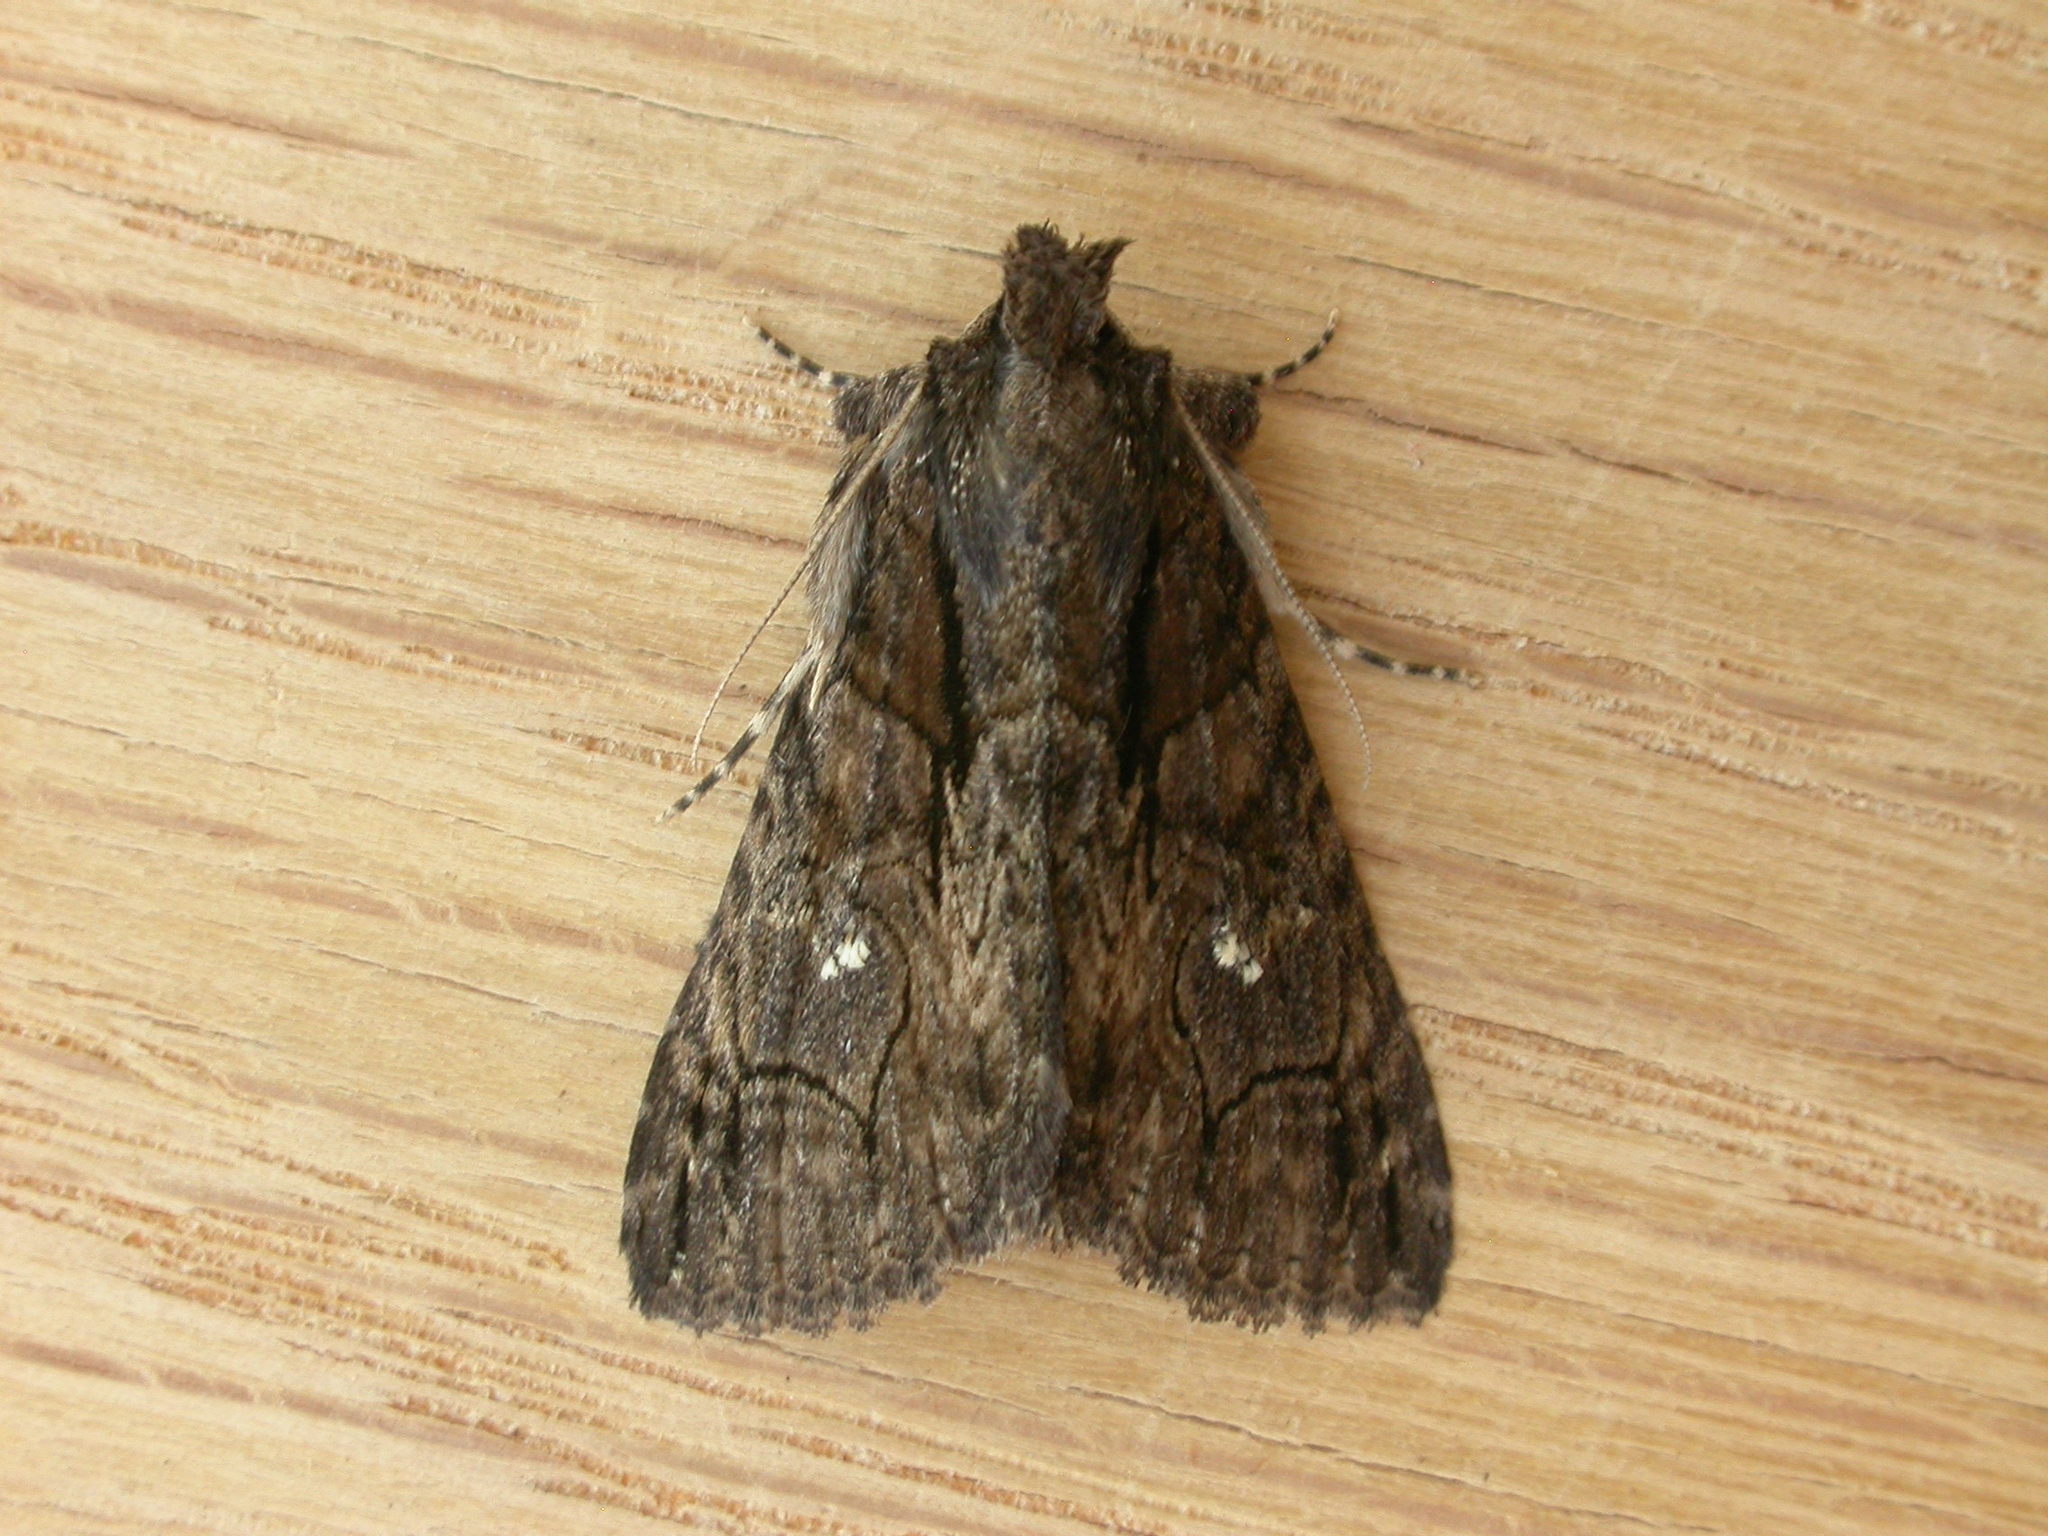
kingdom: Animalia
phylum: Arthropoda
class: Insecta
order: Lepidoptera
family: Erebidae
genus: Crioa
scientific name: Crioa hades
